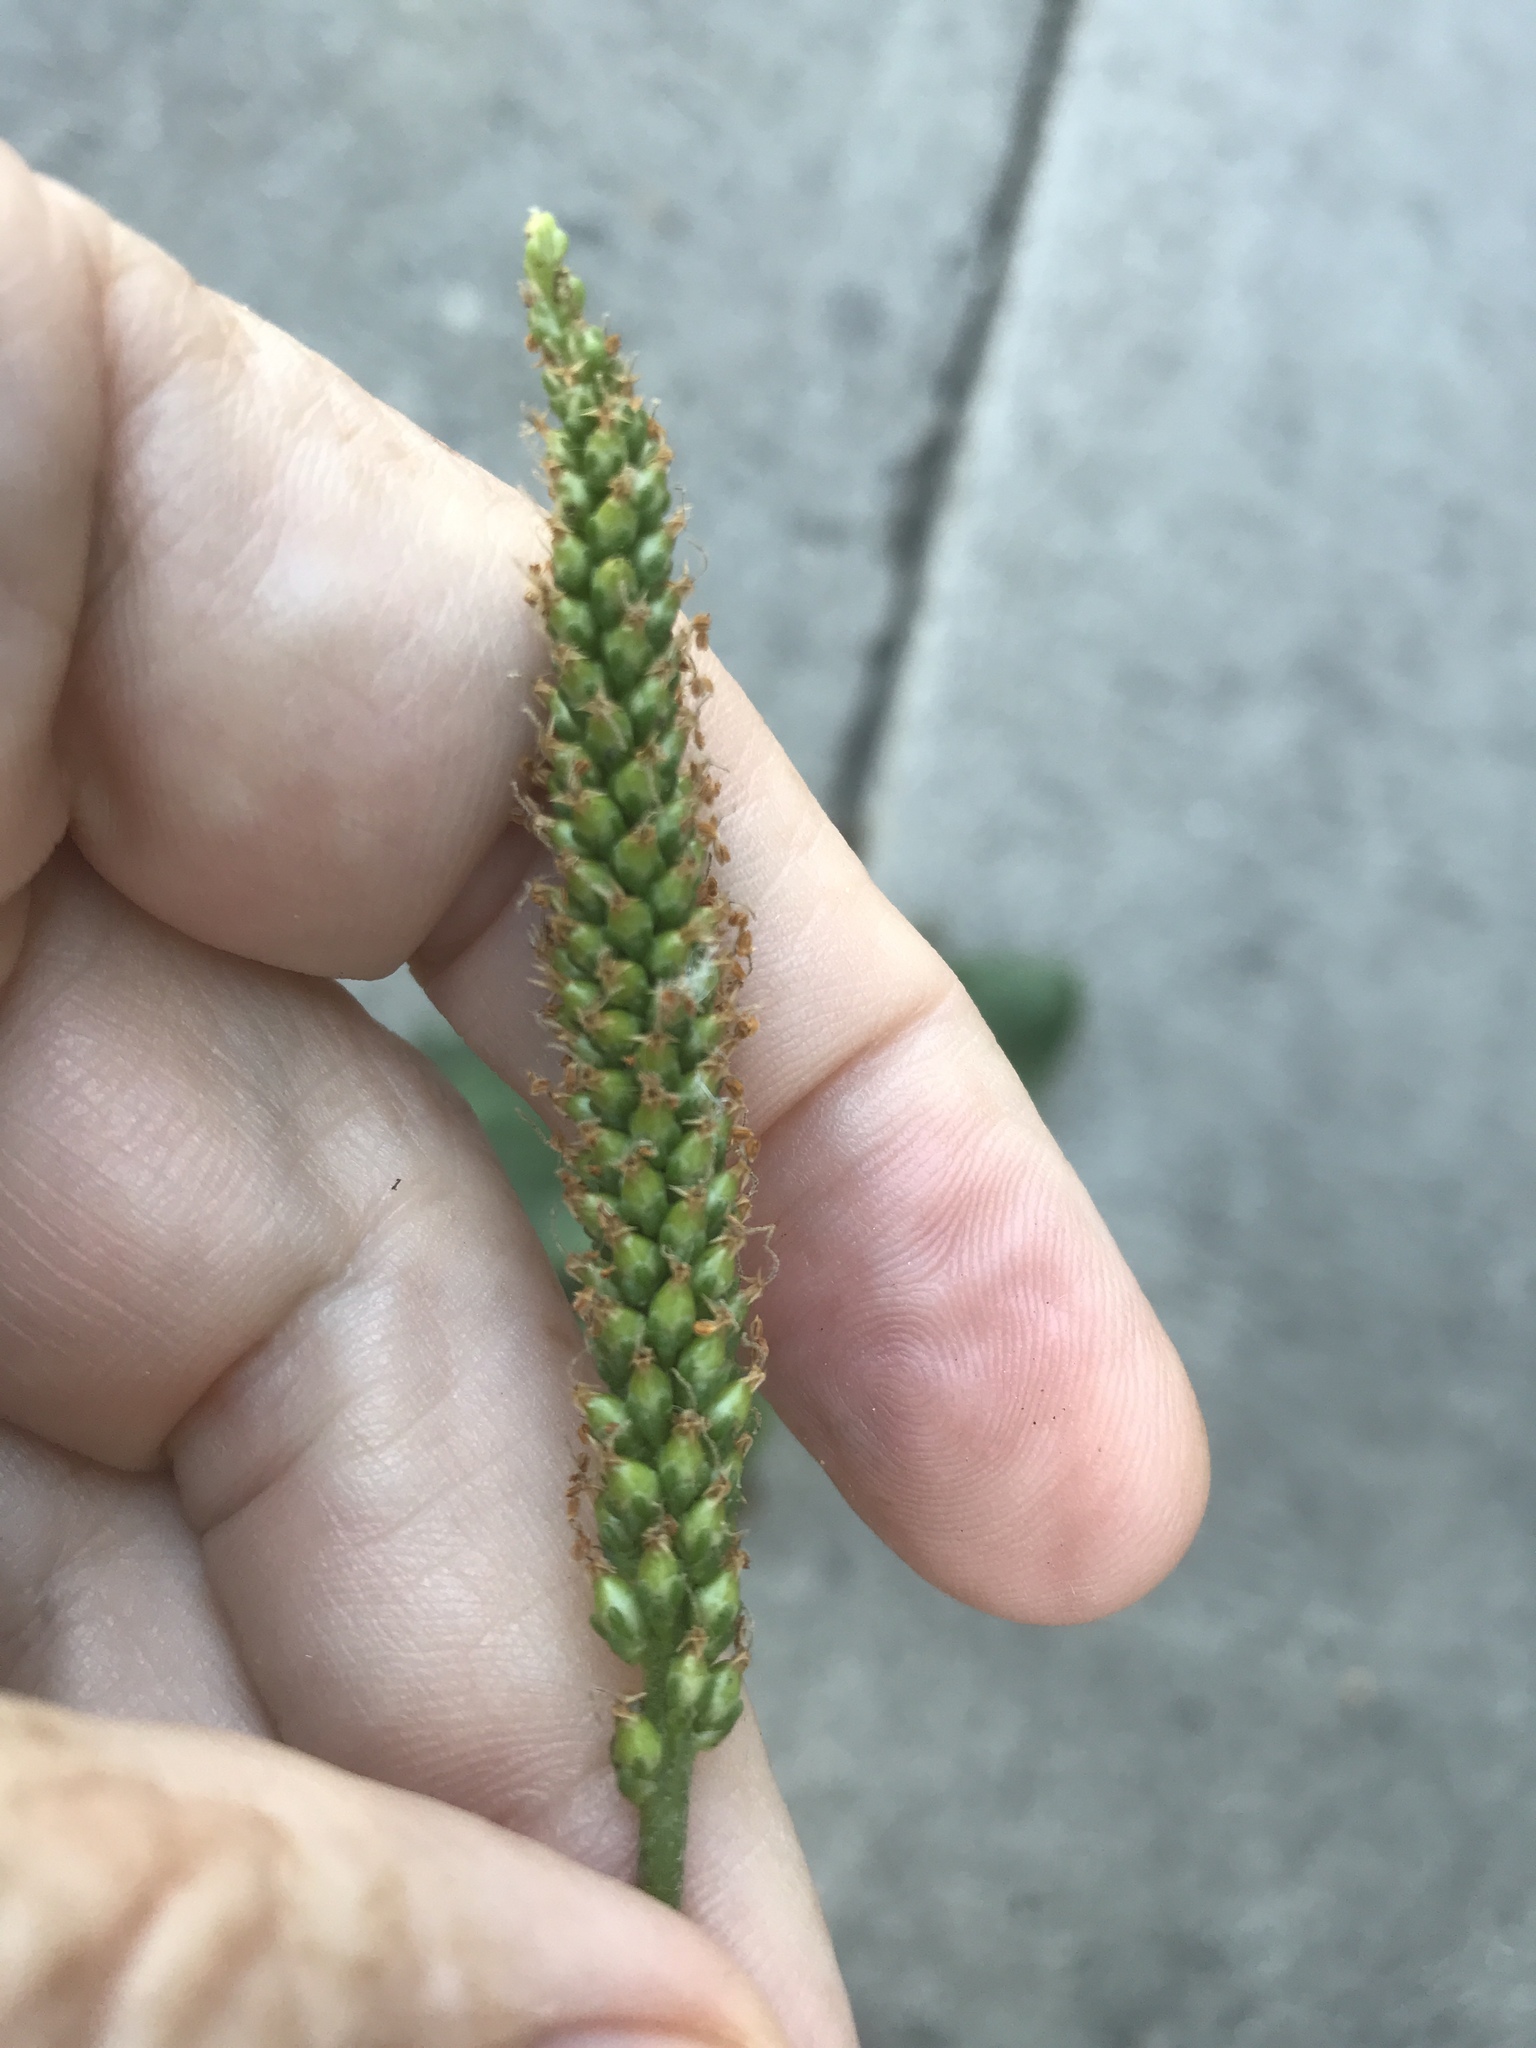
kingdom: Plantae
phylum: Tracheophyta
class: Magnoliopsida
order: Lamiales
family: Plantaginaceae
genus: Plantago
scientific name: Plantago major
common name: Common plantain
